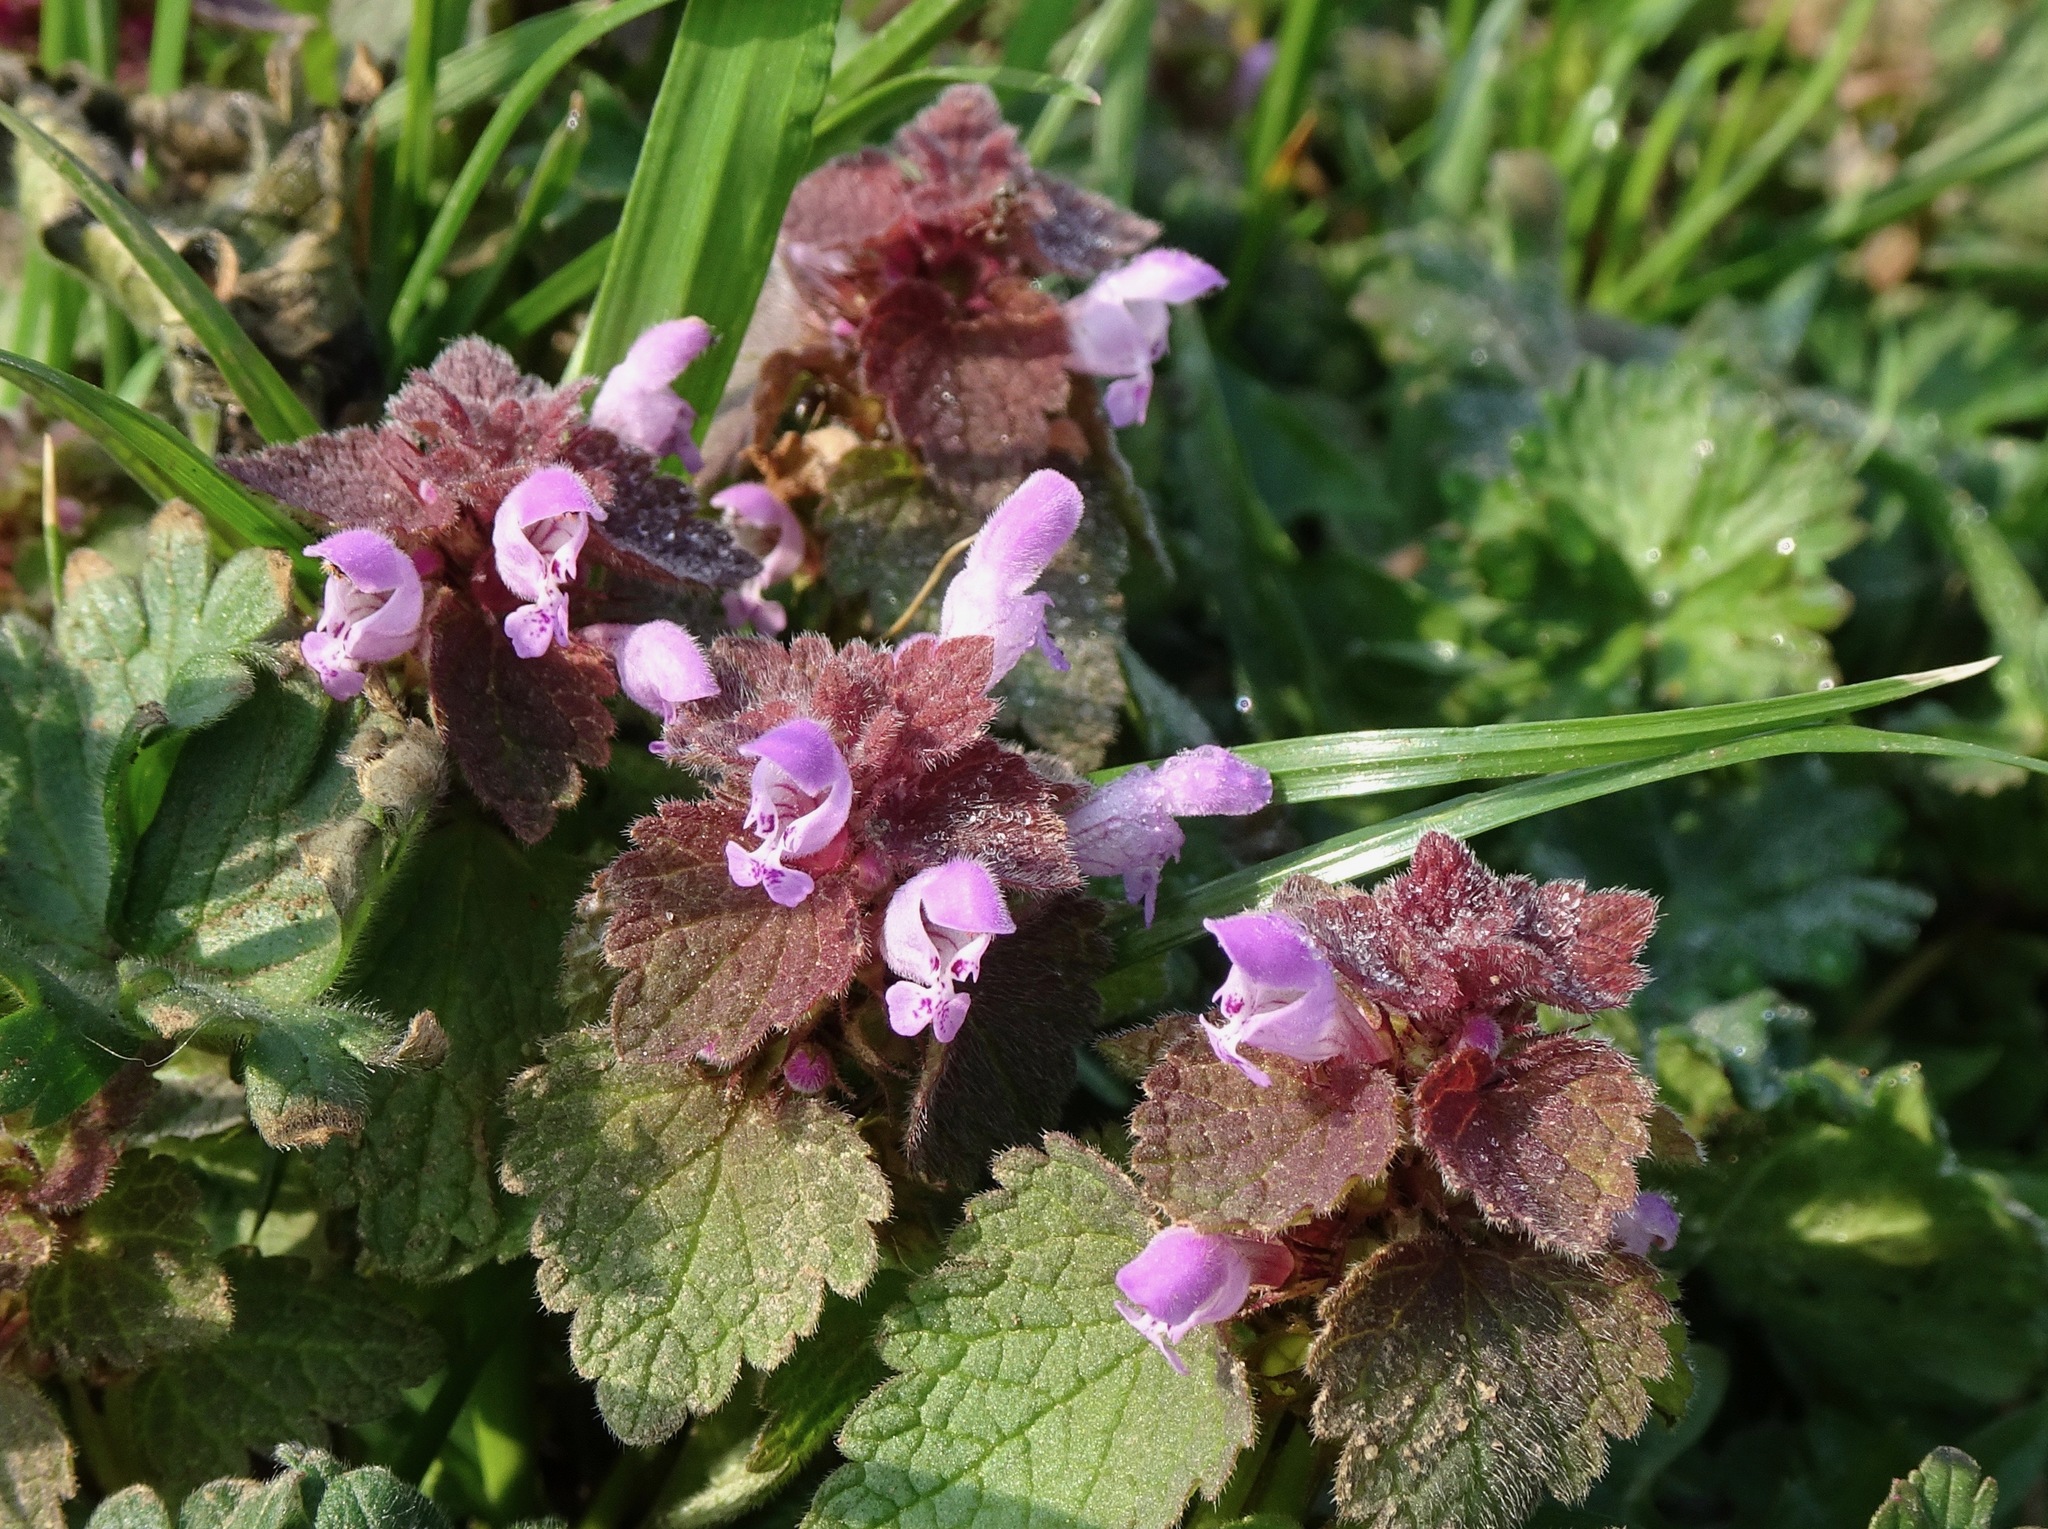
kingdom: Plantae
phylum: Tracheophyta
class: Magnoliopsida
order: Lamiales
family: Lamiaceae
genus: Lamium
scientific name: Lamium purpureum
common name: Red dead-nettle
